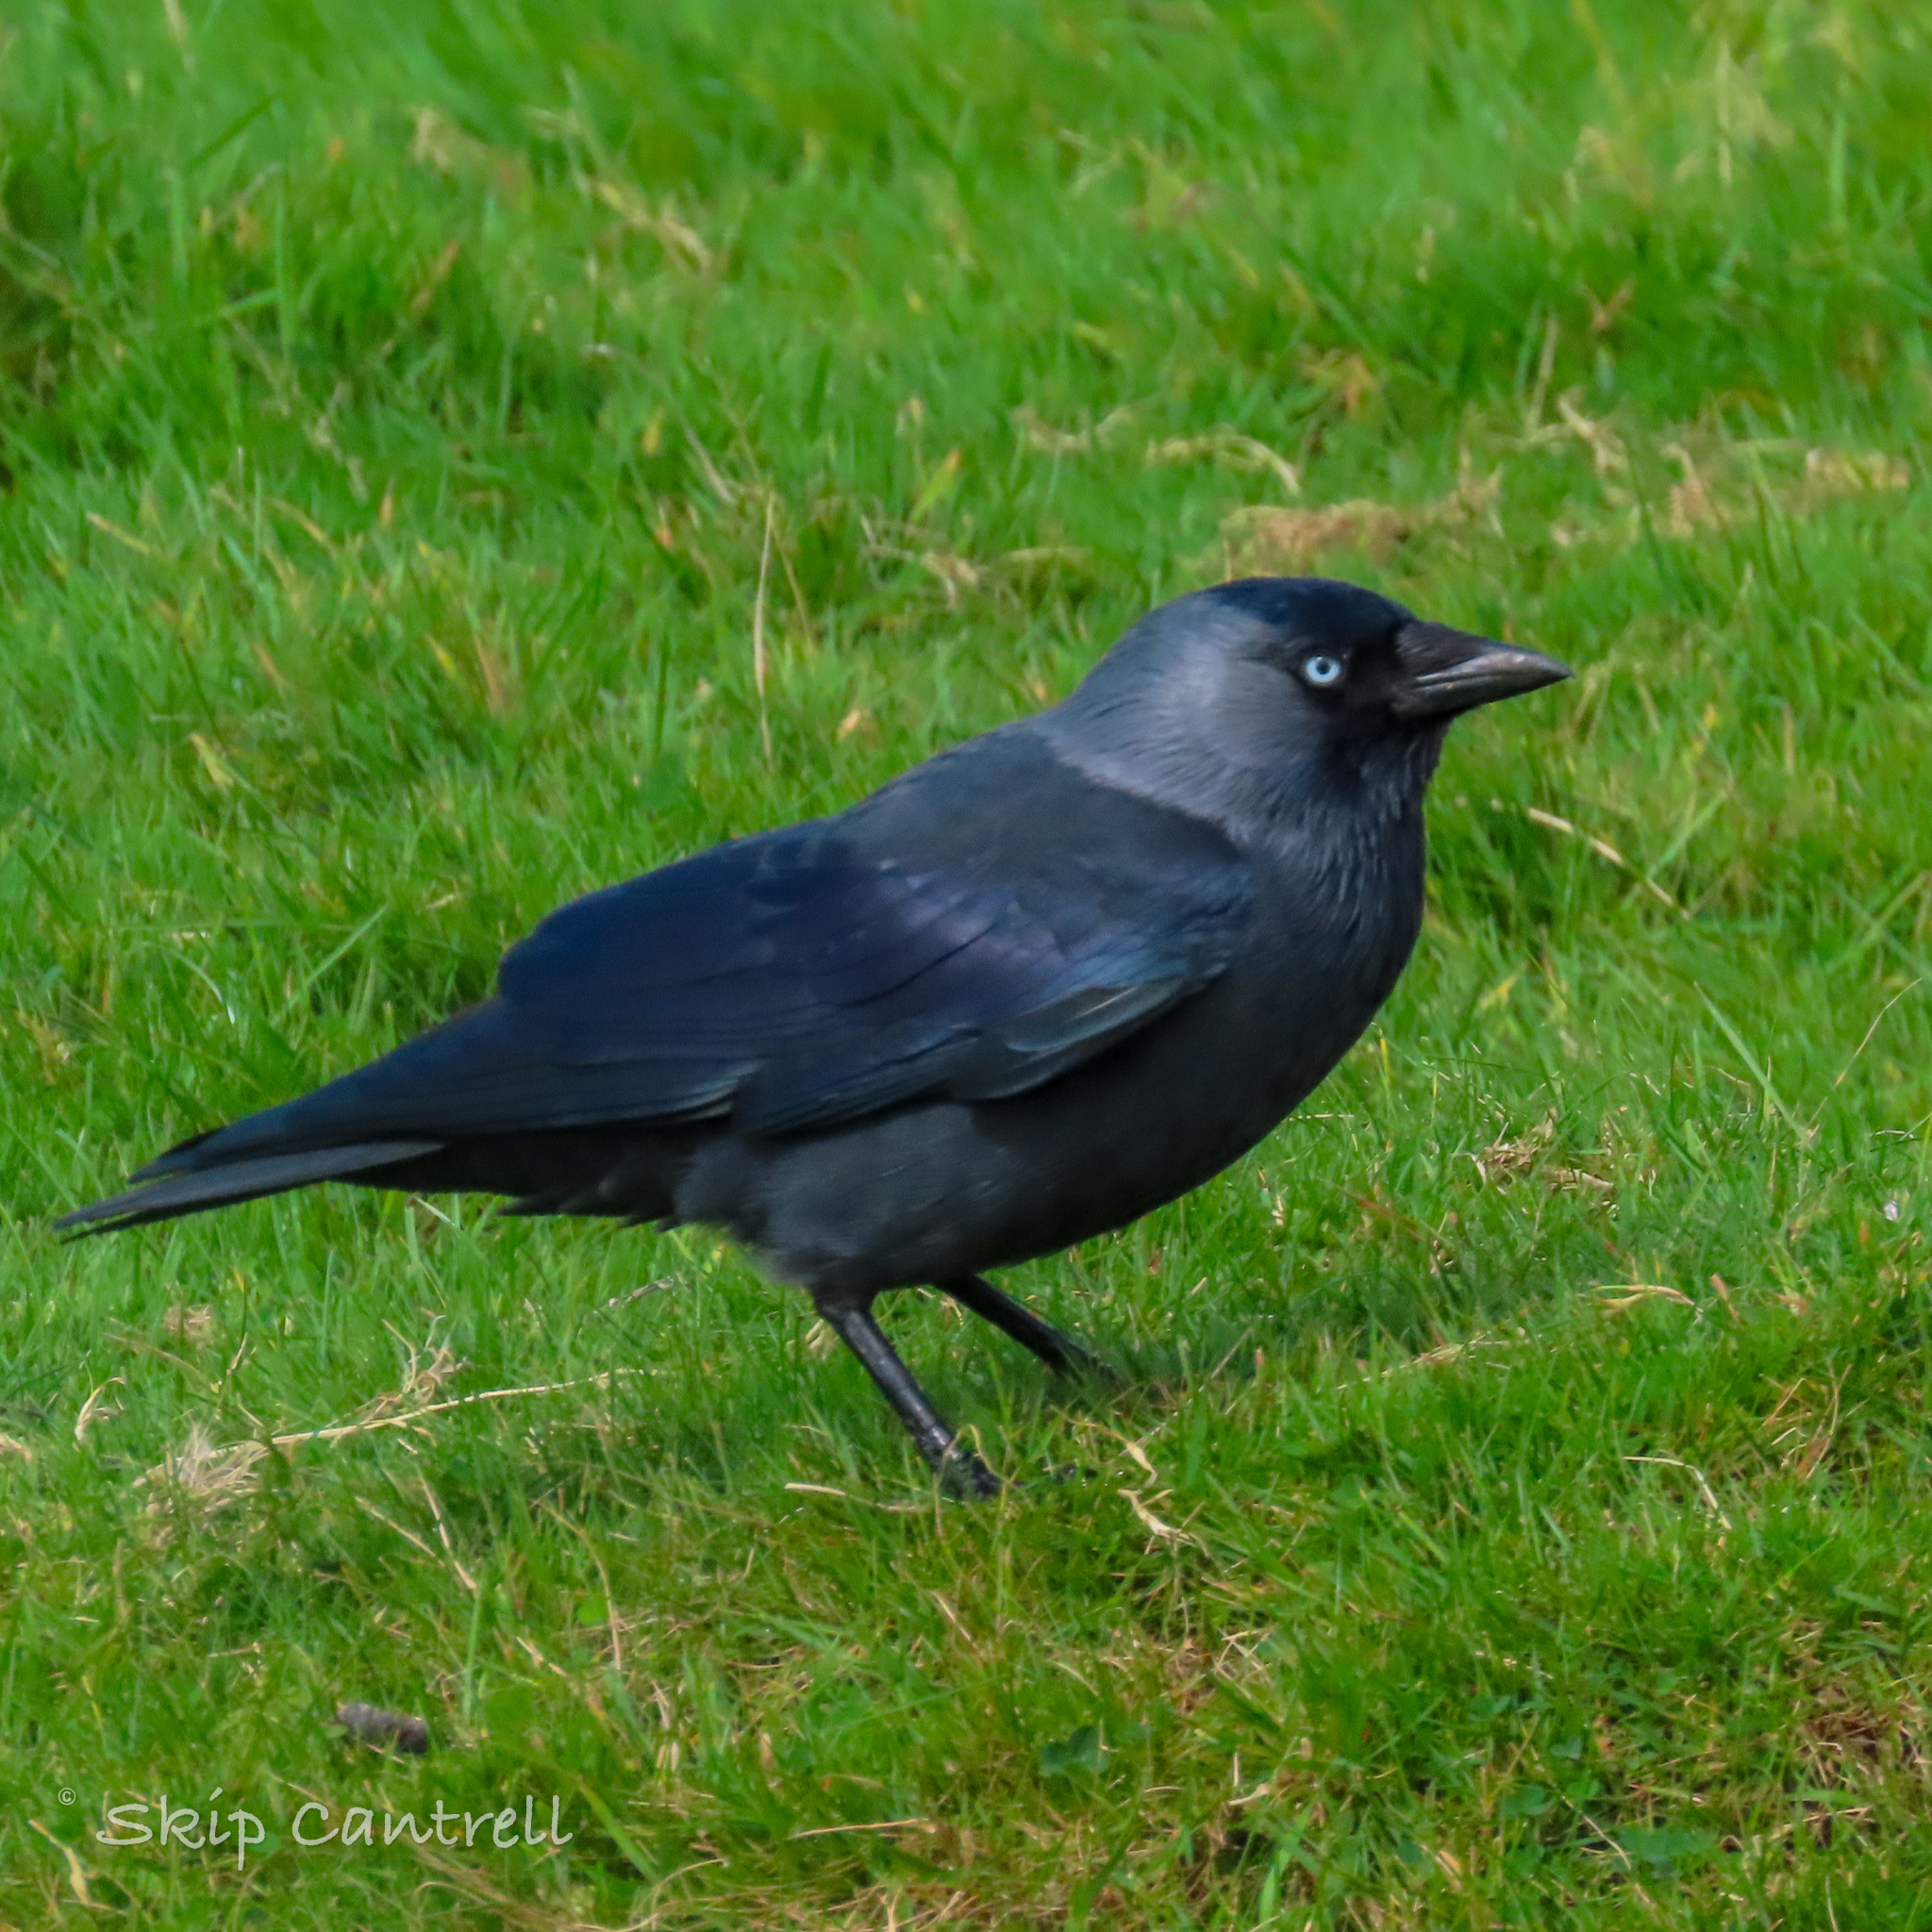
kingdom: Animalia
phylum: Chordata
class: Aves
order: Passeriformes
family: Corvidae
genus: Coloeus
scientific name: Coloeus monedula
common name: Western jackdaw
